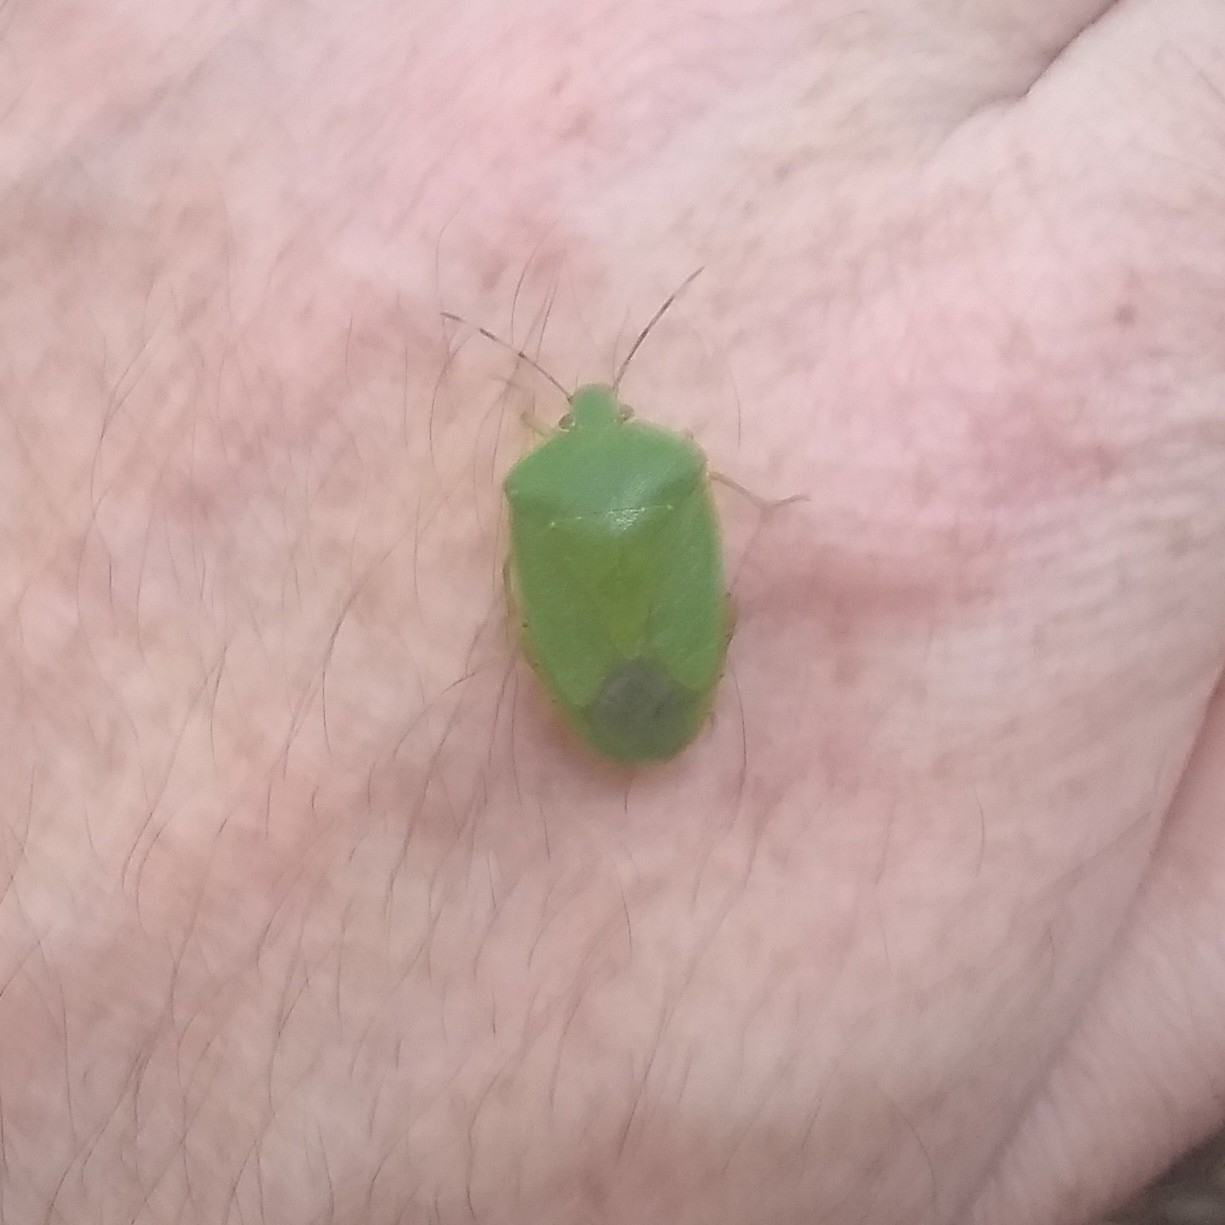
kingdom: Animalia
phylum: Arthropoda
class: Insecta
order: Hemiptera
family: Pentatomidae
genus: Chinavia
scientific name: Chinavia hilaris
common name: Green stink bug
